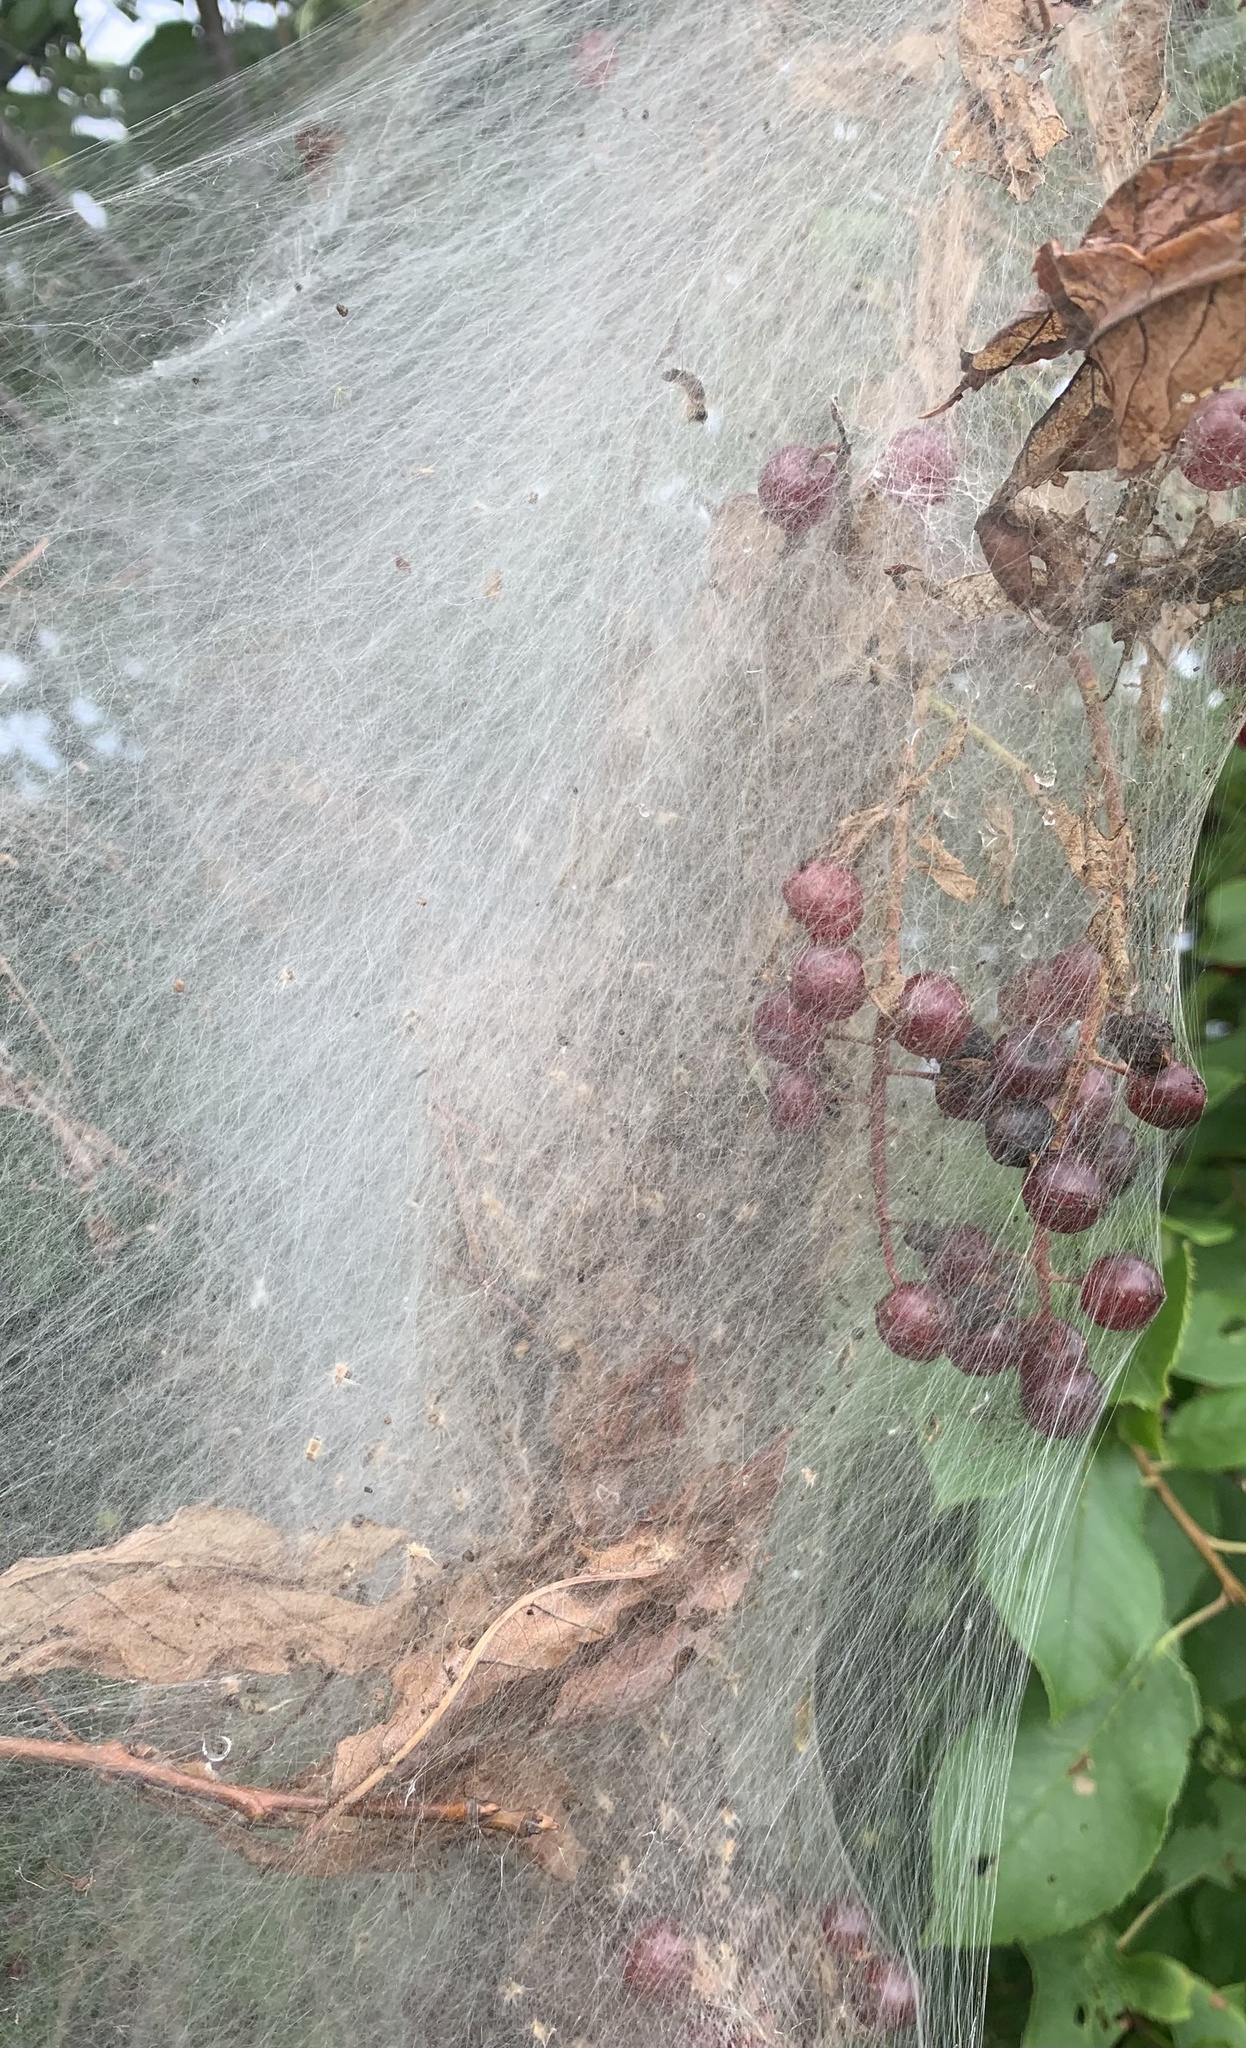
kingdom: Animalia
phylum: Arthropoda
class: Insecta
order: Lepidoptera
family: Erebidae
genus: Hyphantria
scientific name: Hyphantria cunea
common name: American white moth
